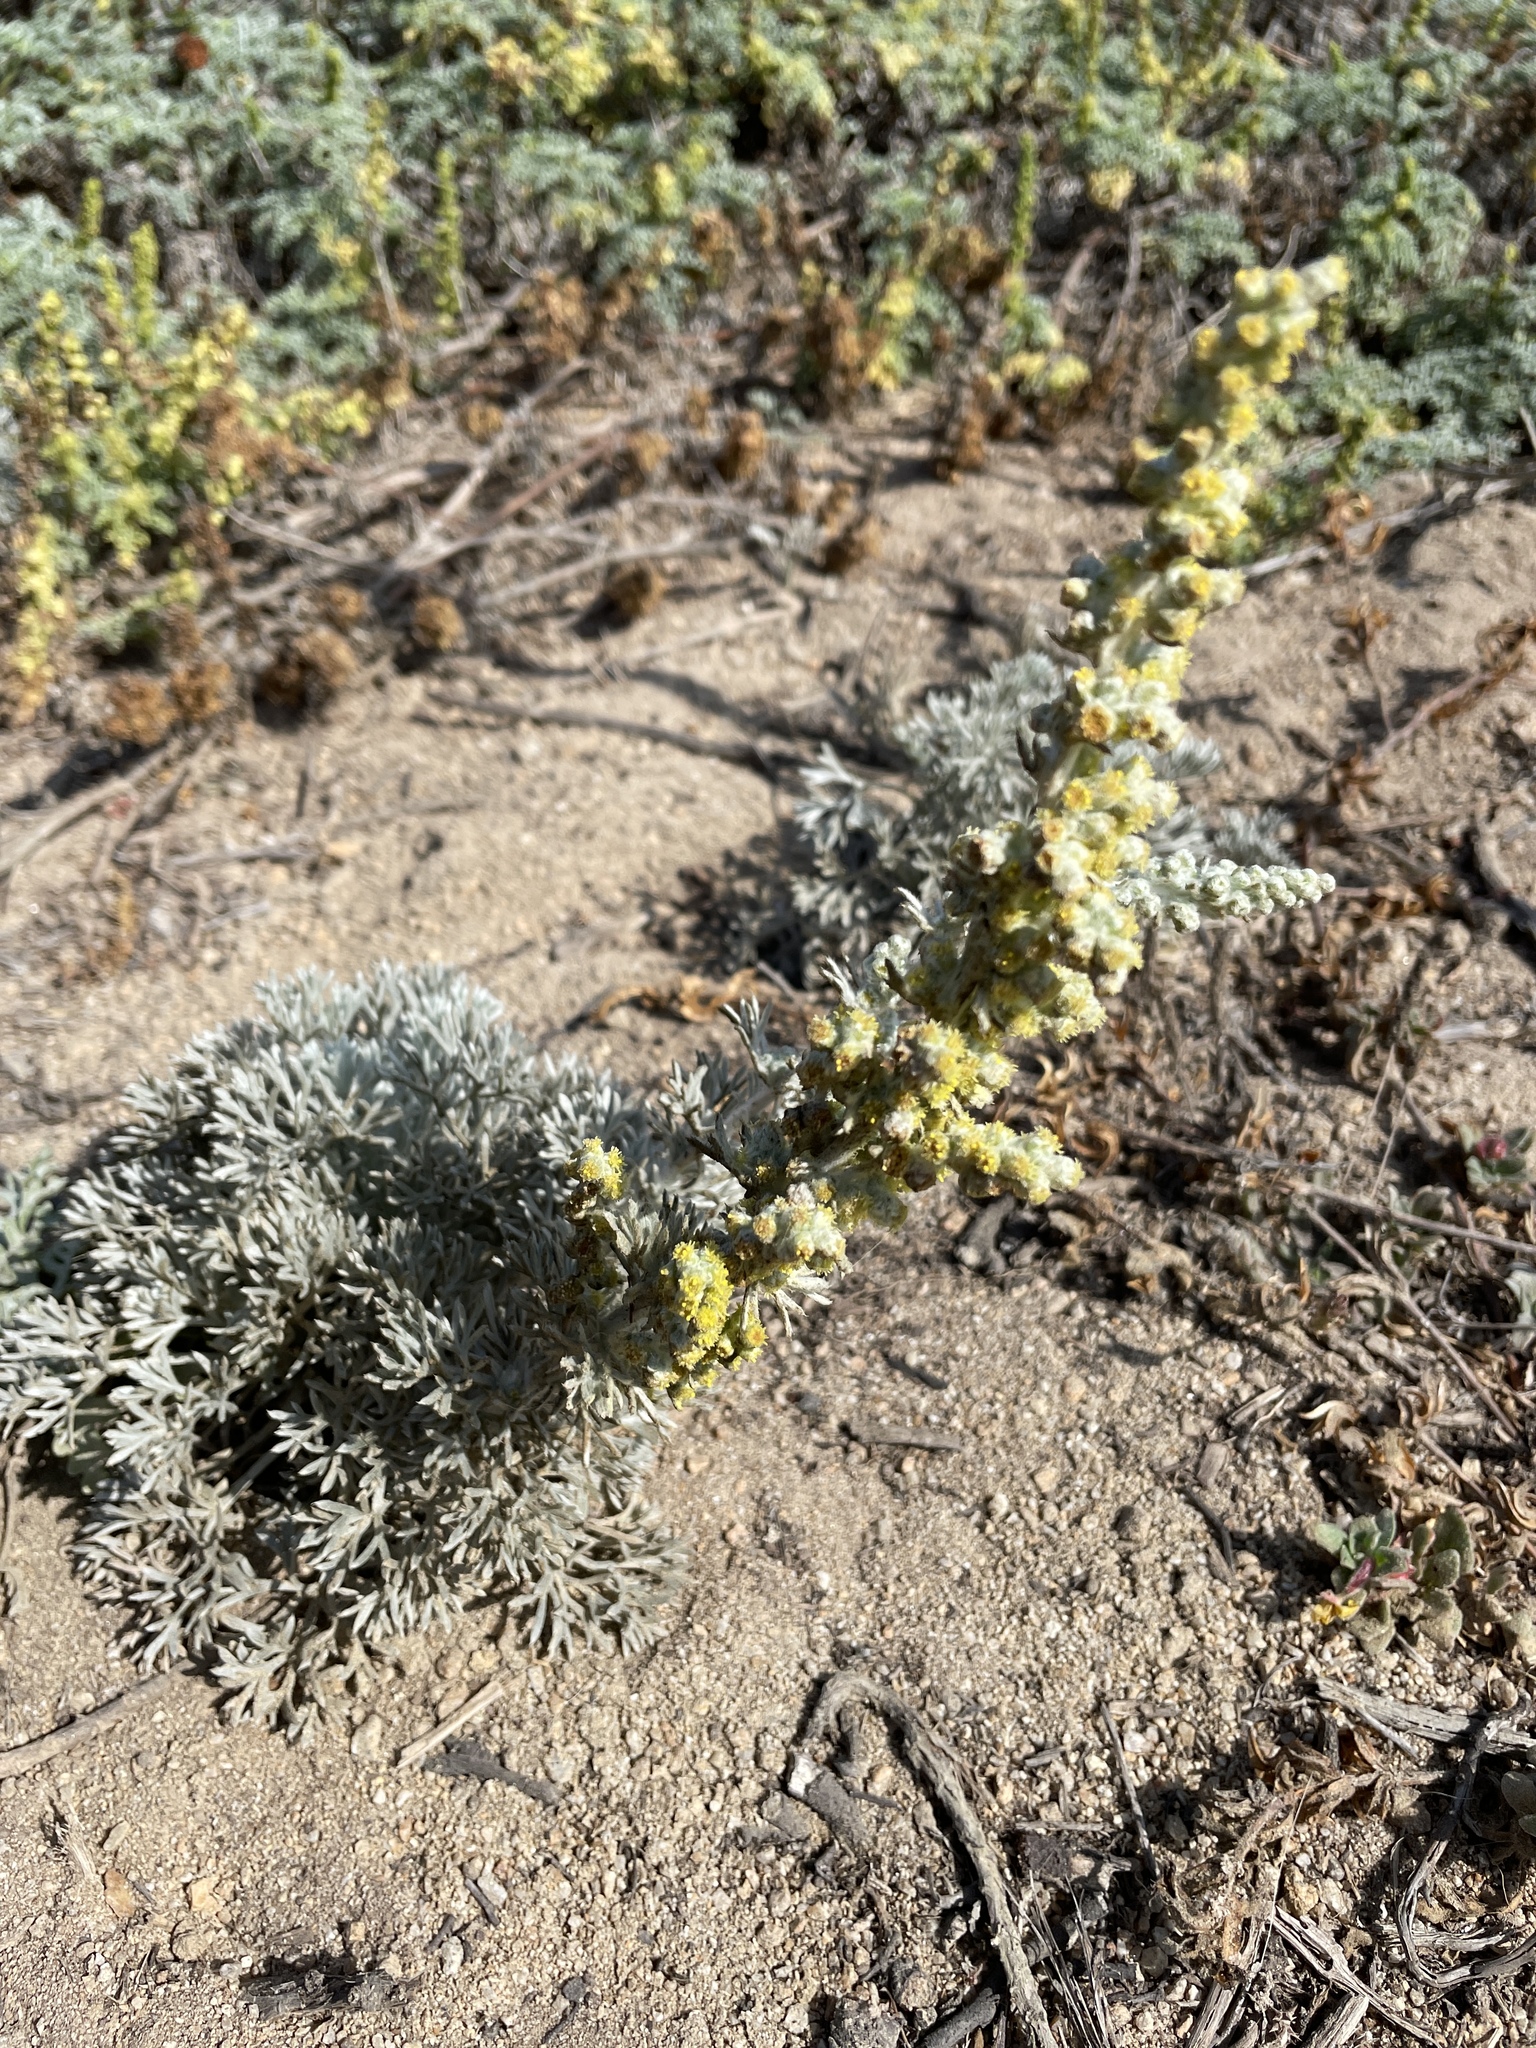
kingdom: Plantae
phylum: Tracheophyta
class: Magnoliopsida
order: Asterales
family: Asteraceae
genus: Artemisia
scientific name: Artemisia pycnocephala
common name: Coastal sagewort
